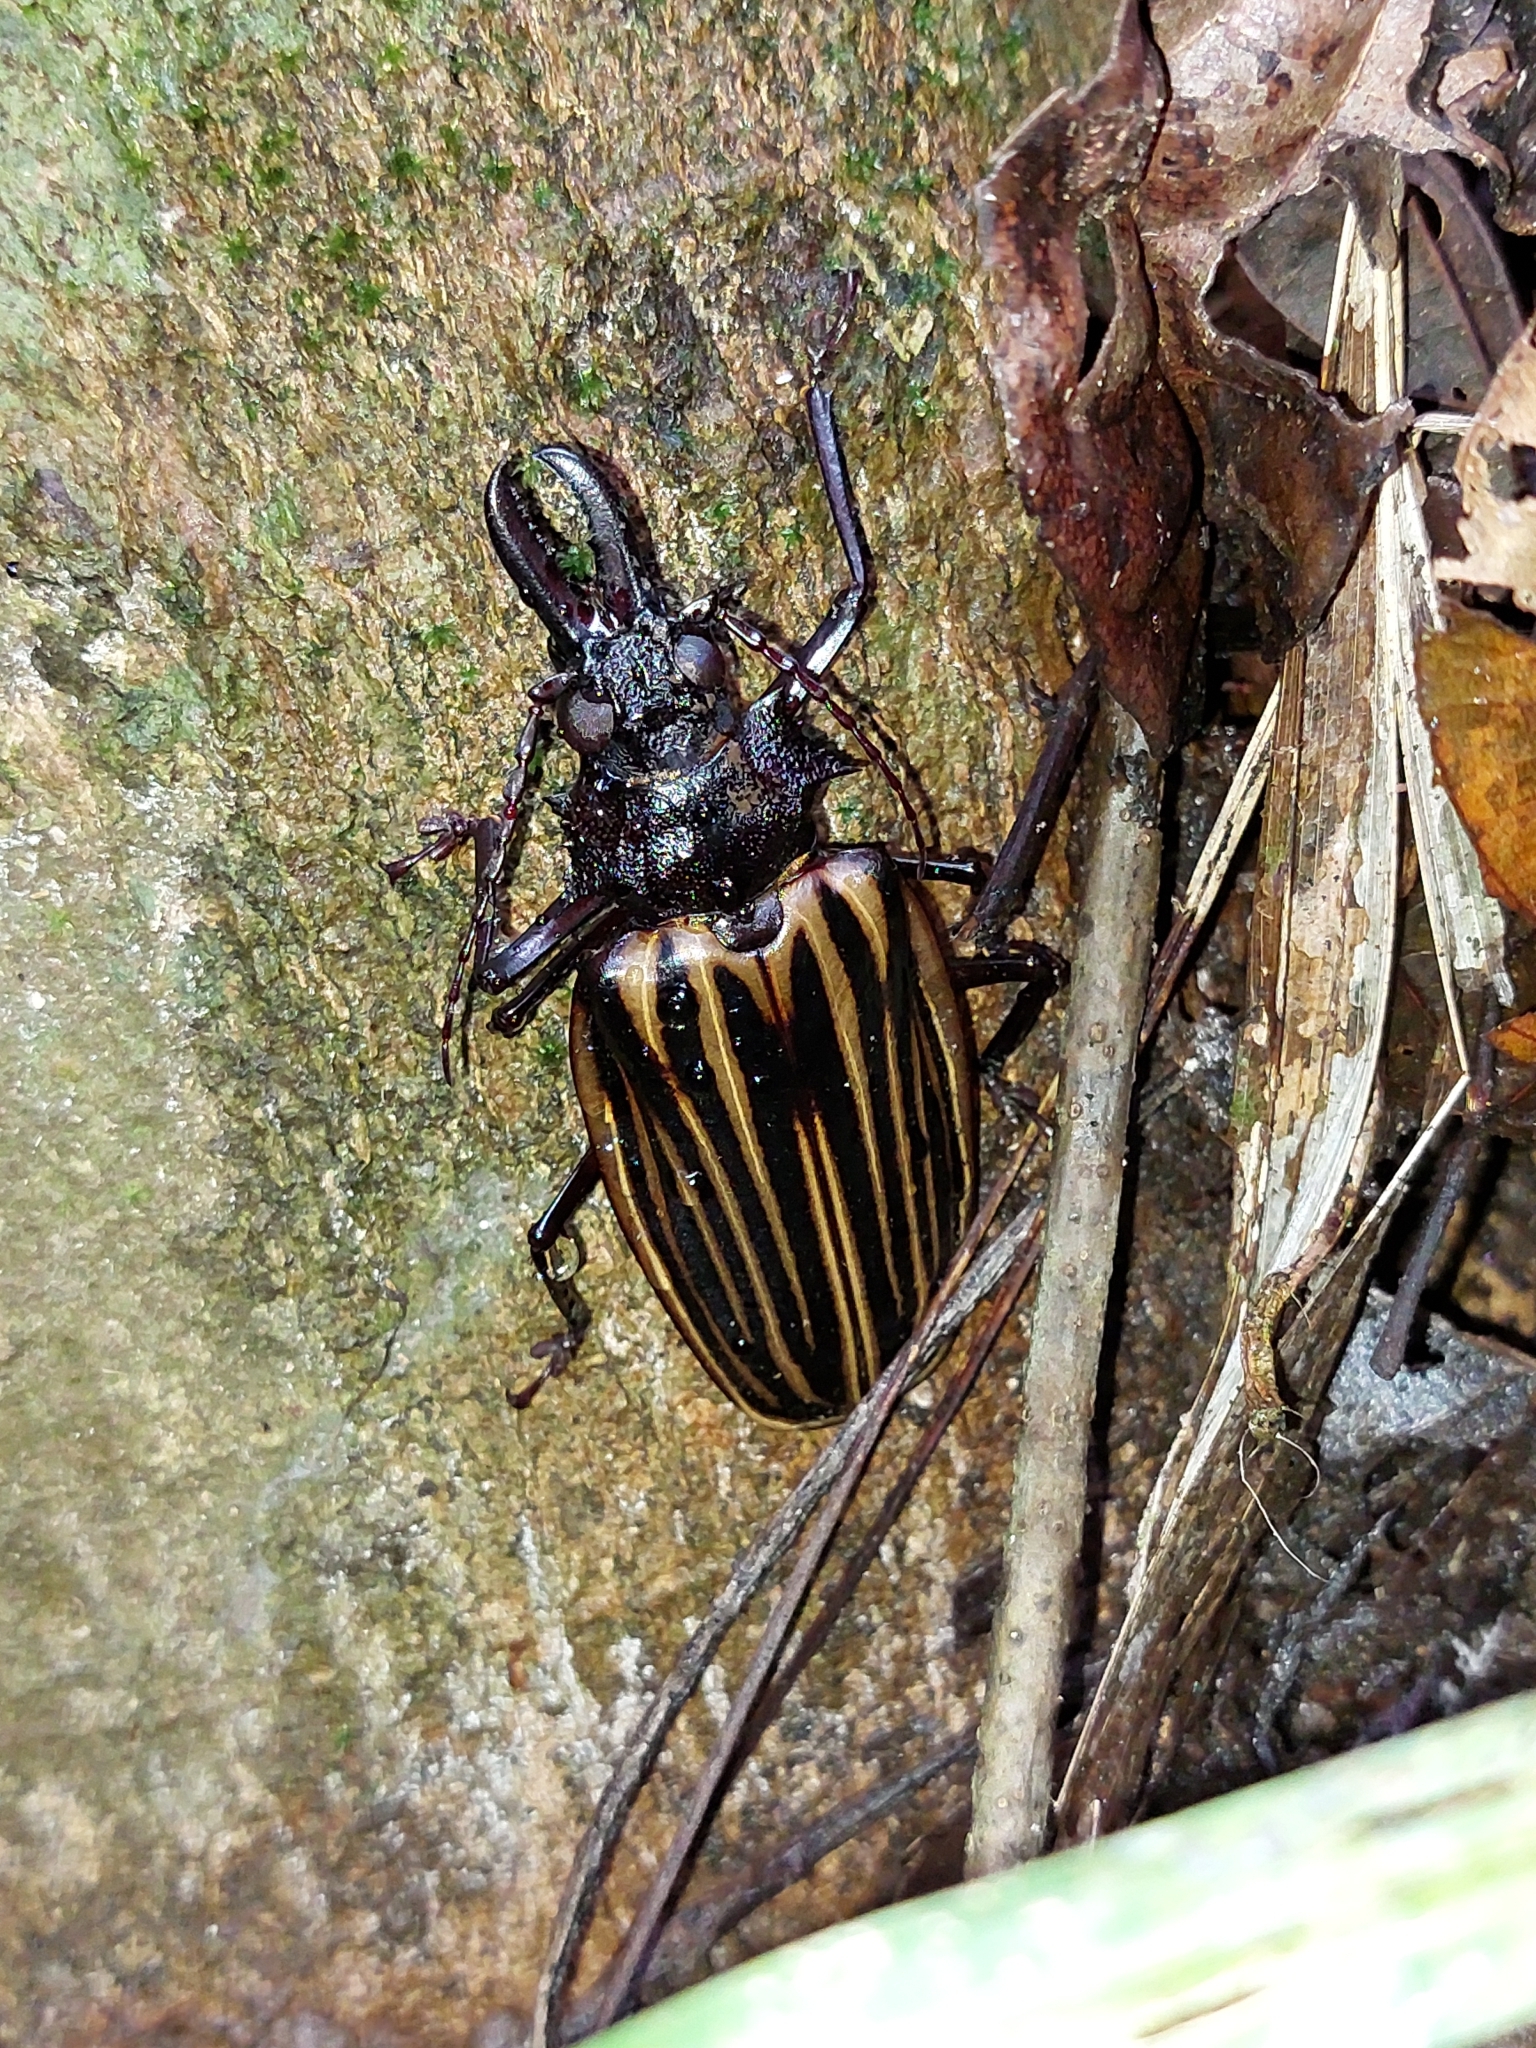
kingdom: Animalia
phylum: Arthropoda
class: Insecta
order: Coleoptera
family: Cerambycidae
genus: Macrodontia
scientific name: Macrodontia batesi
